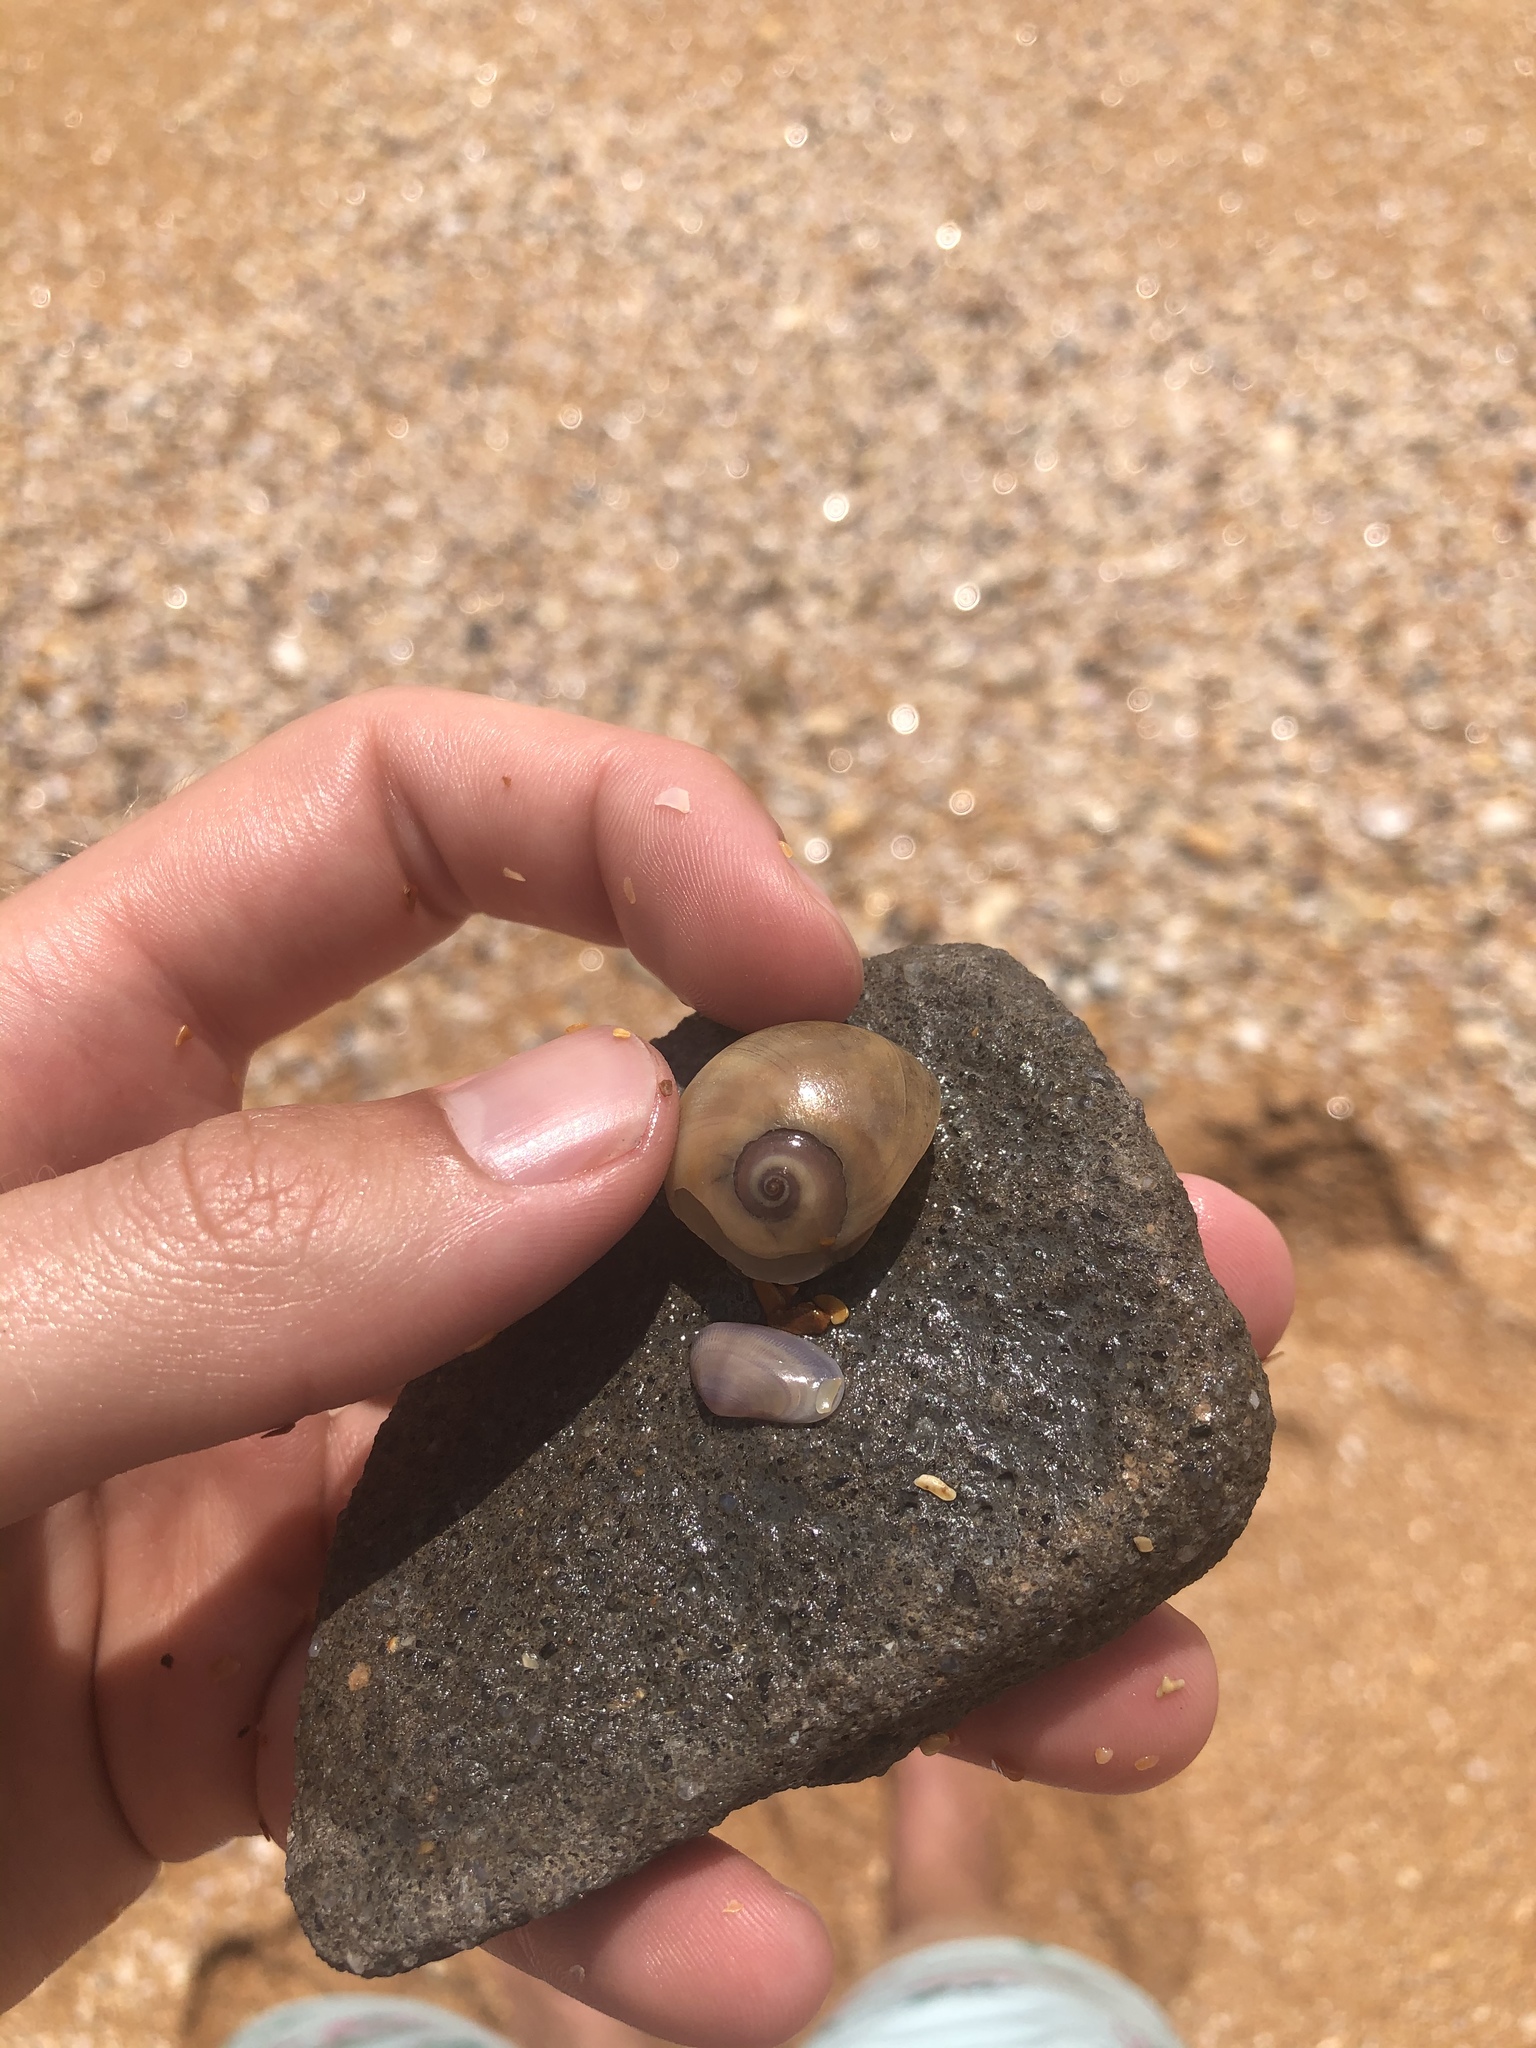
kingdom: Animalia
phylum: Mollusca
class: Gastropoda
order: Littorinimorpha
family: Naticidae
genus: Neverita
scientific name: Neverita duplicata
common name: Lobed moonsnail
